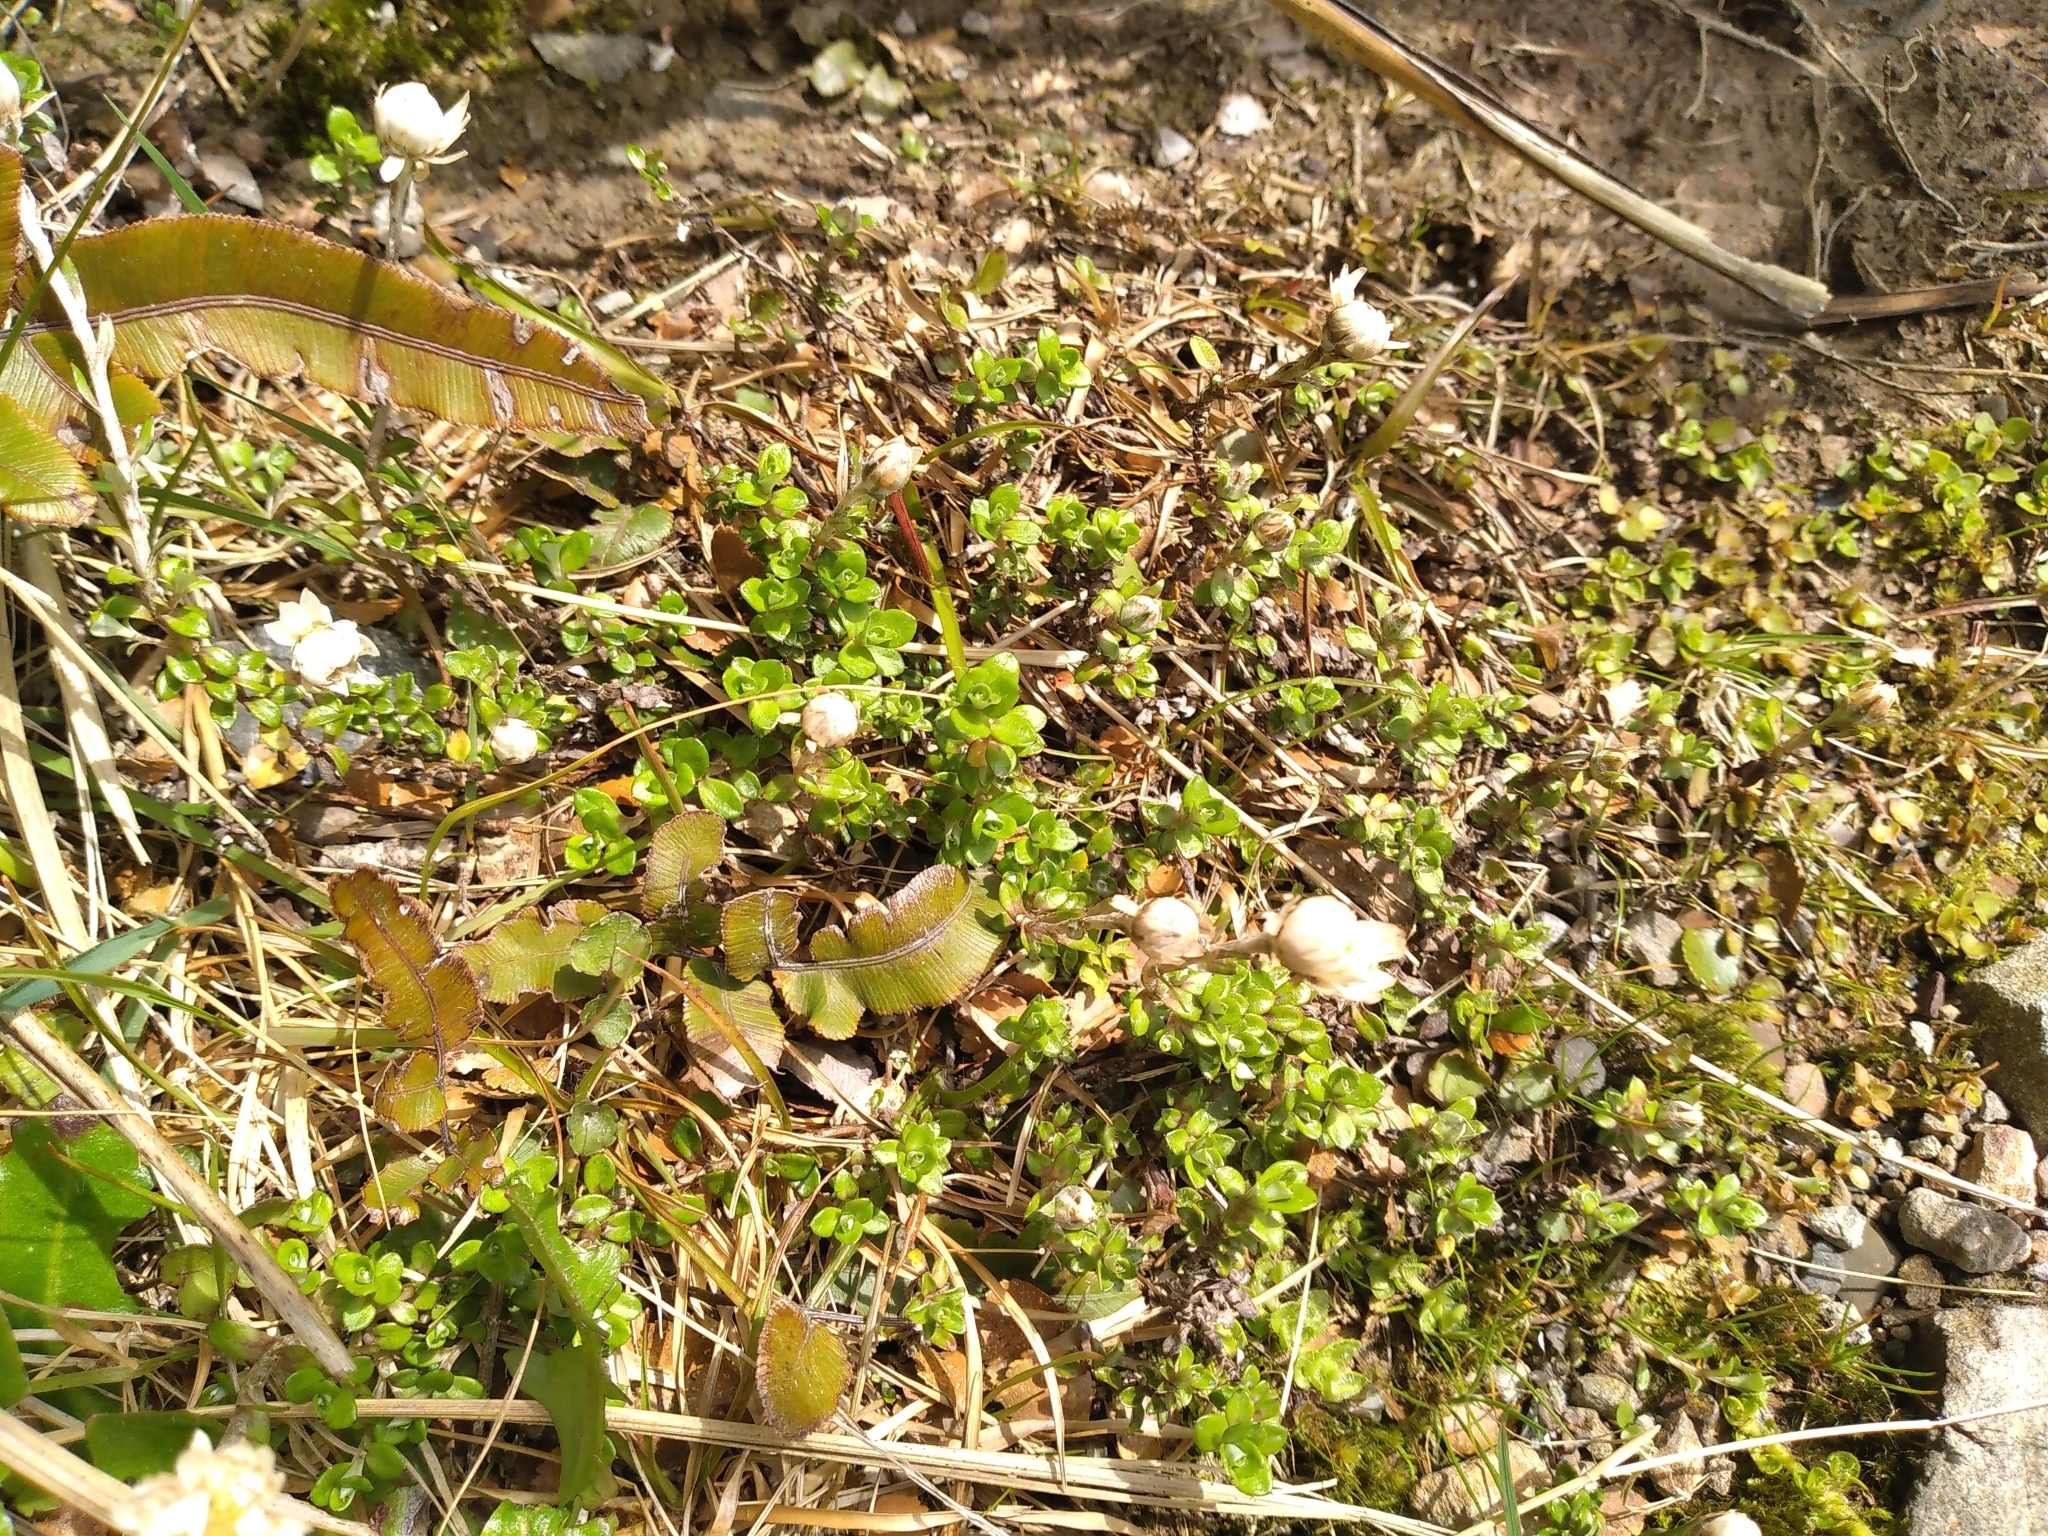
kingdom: Plantae
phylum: Tracheophyta
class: Magnoliopsida
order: Asterales
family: Asteraceae
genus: Anaphalioides
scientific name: Anaphalioides bellidioides
